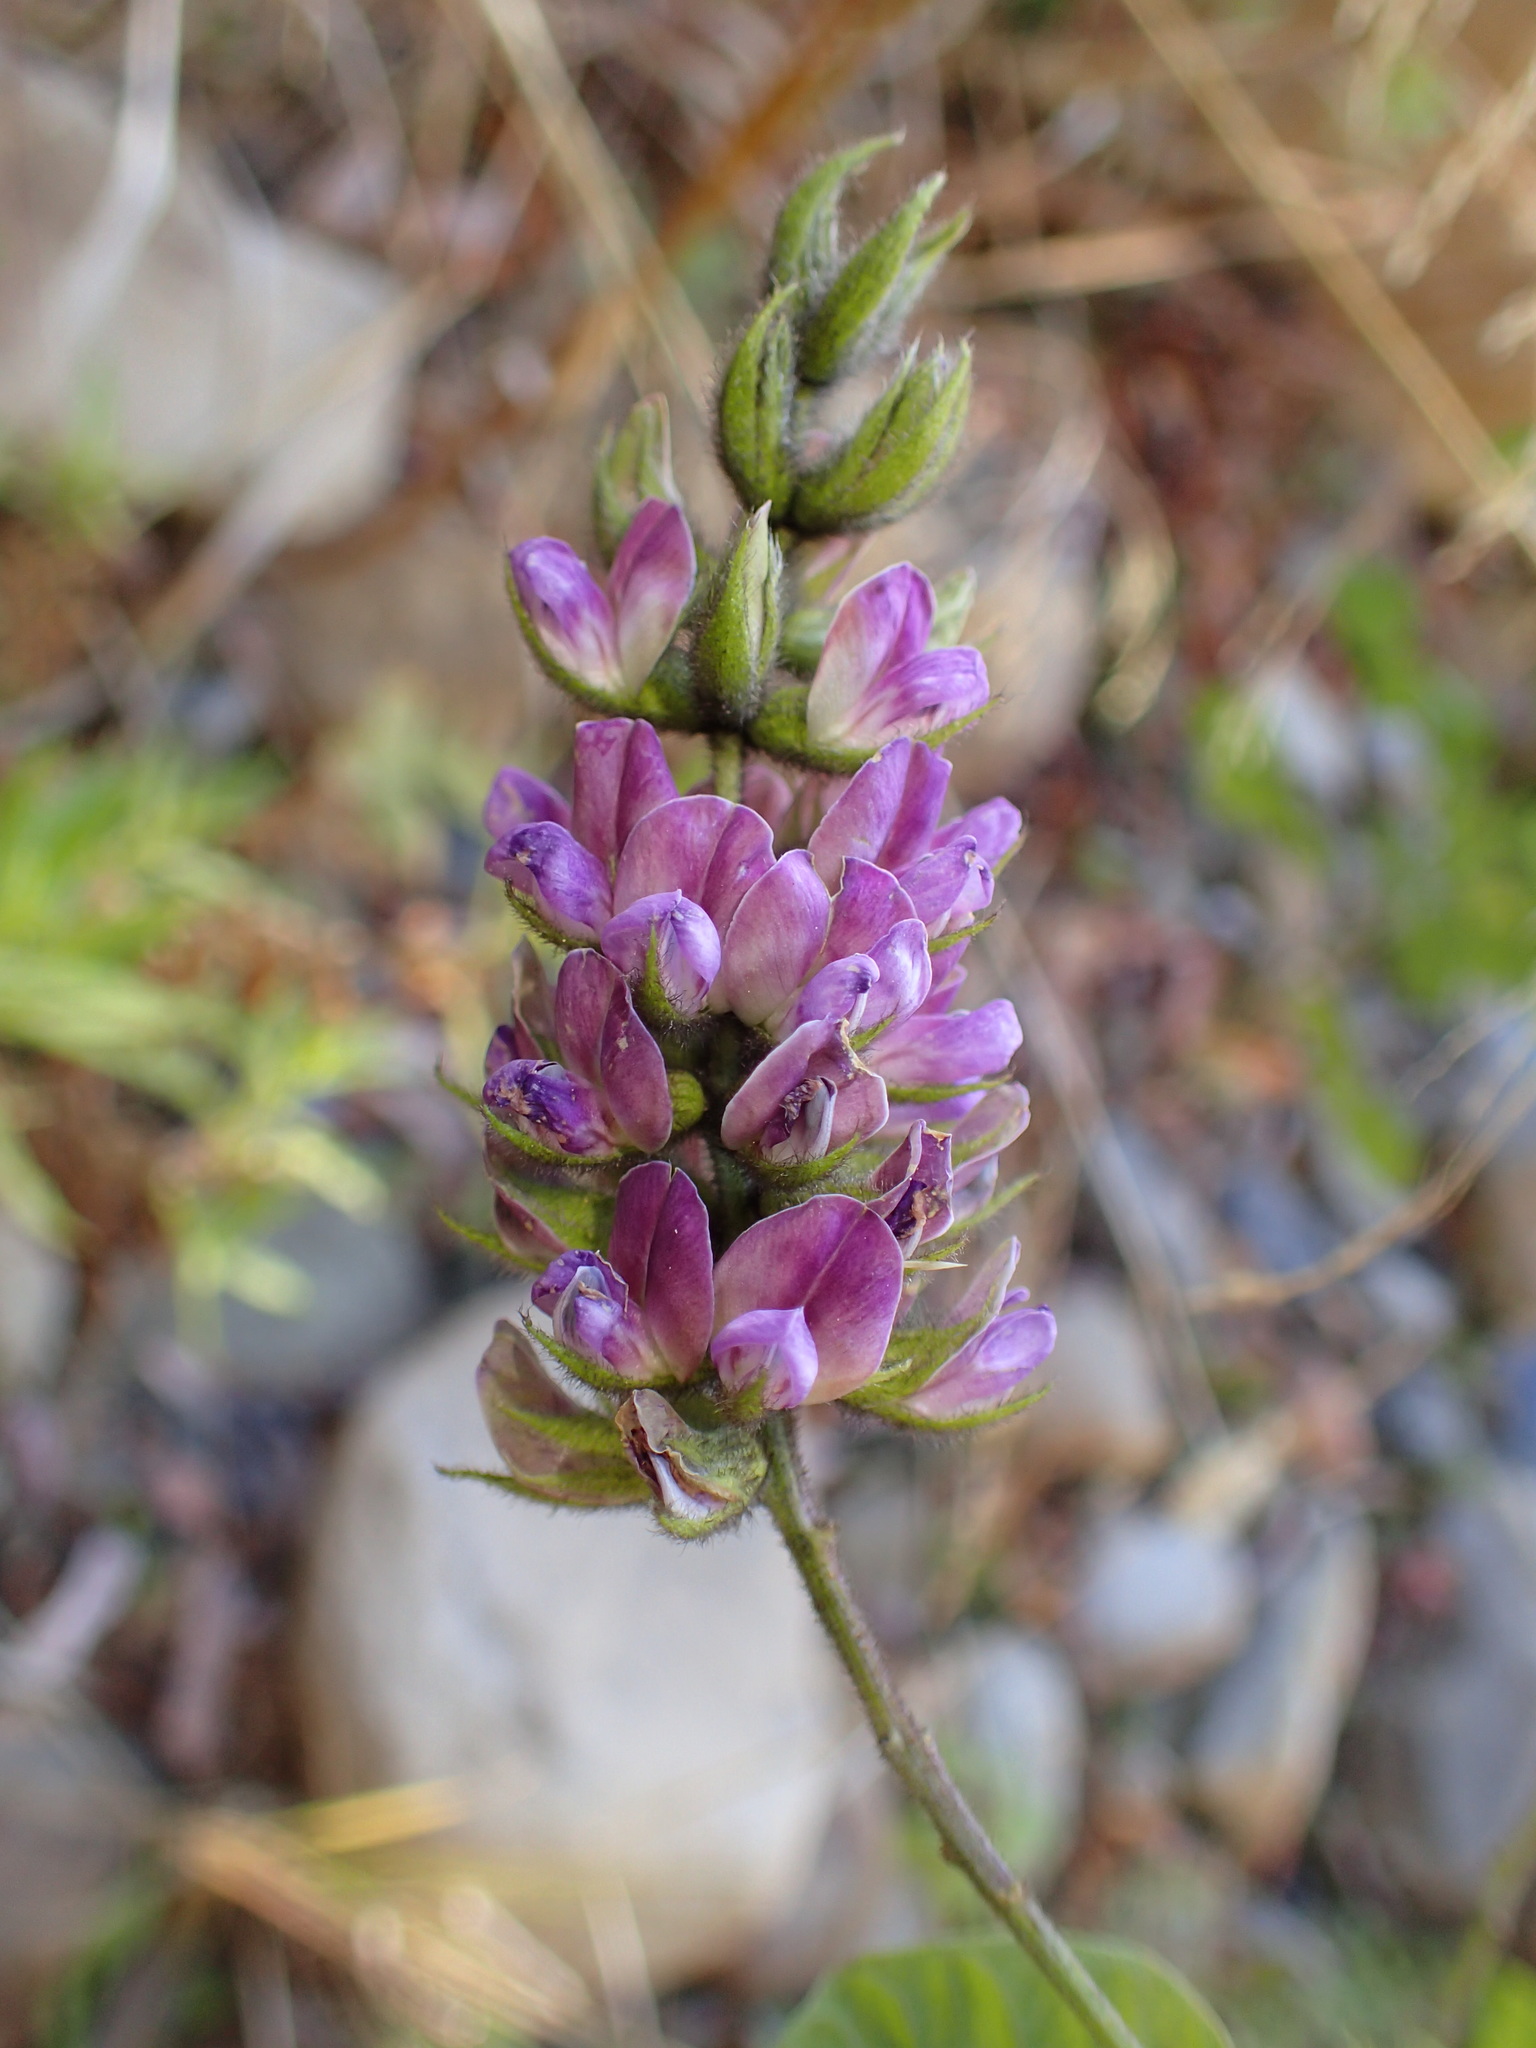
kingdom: Plantae
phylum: Tracheophyta
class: Magnoliopsida
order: Fabales
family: Fabaceae
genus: Hoita
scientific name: Hoita macrostachya
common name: Leatherroot
